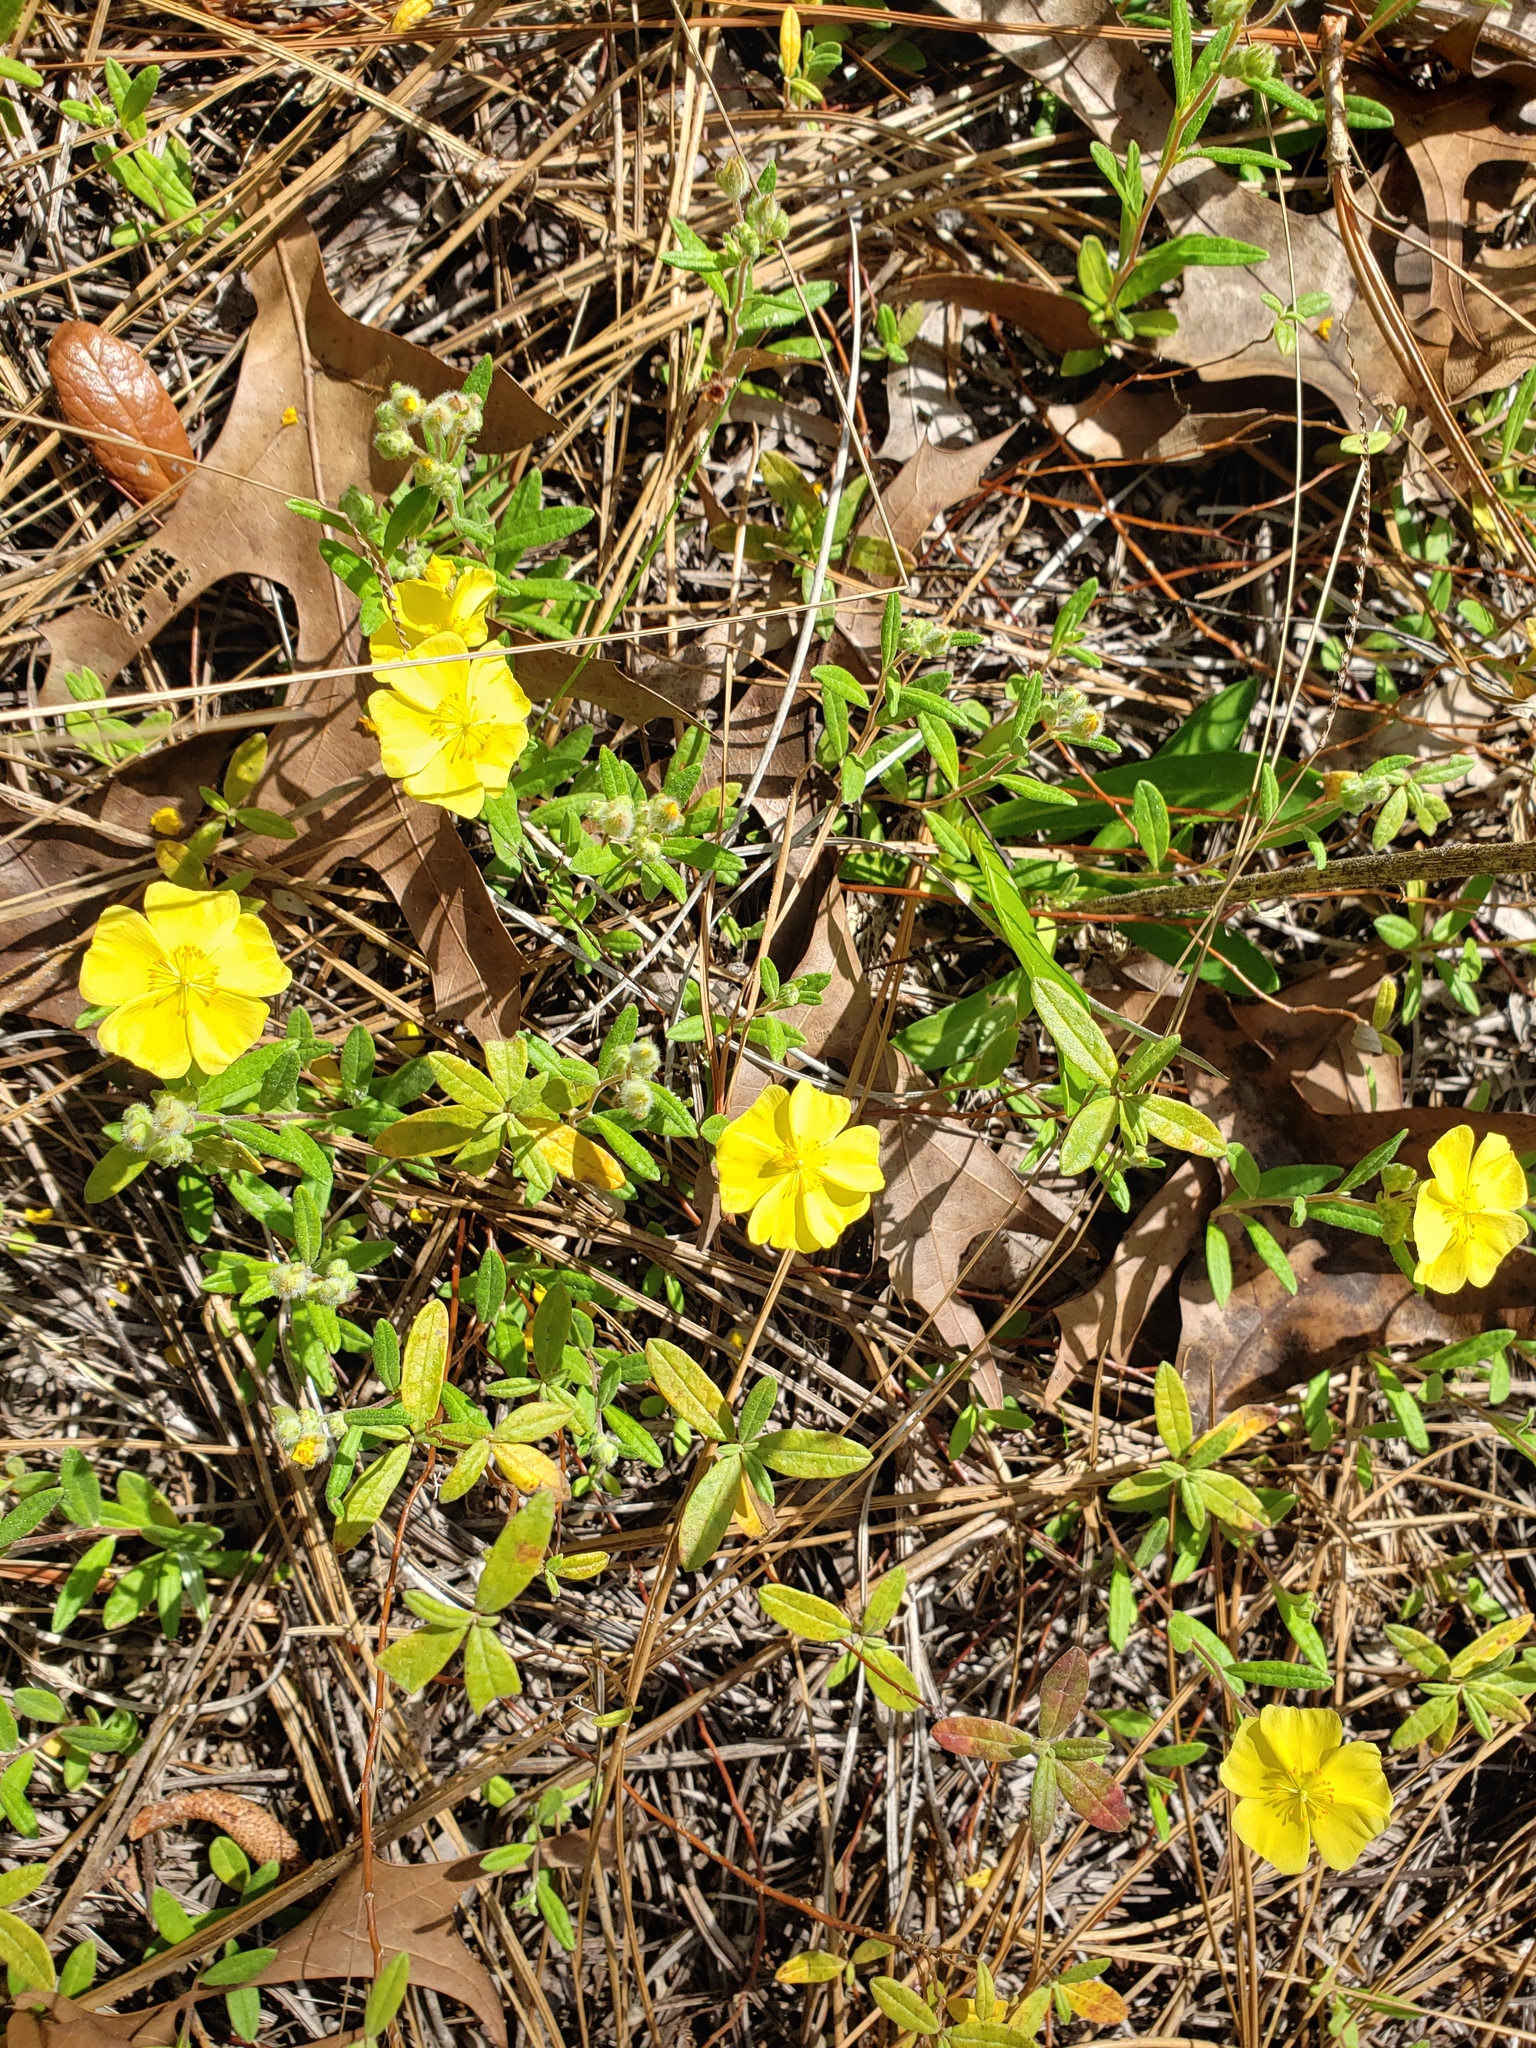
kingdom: Plantae
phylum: Tracheophyta
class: Magnoliopsida
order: Malvales
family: Cistaceae
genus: Crocanthemum
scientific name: Crocanthemum corymbosum
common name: Pinebarren sun-rose
